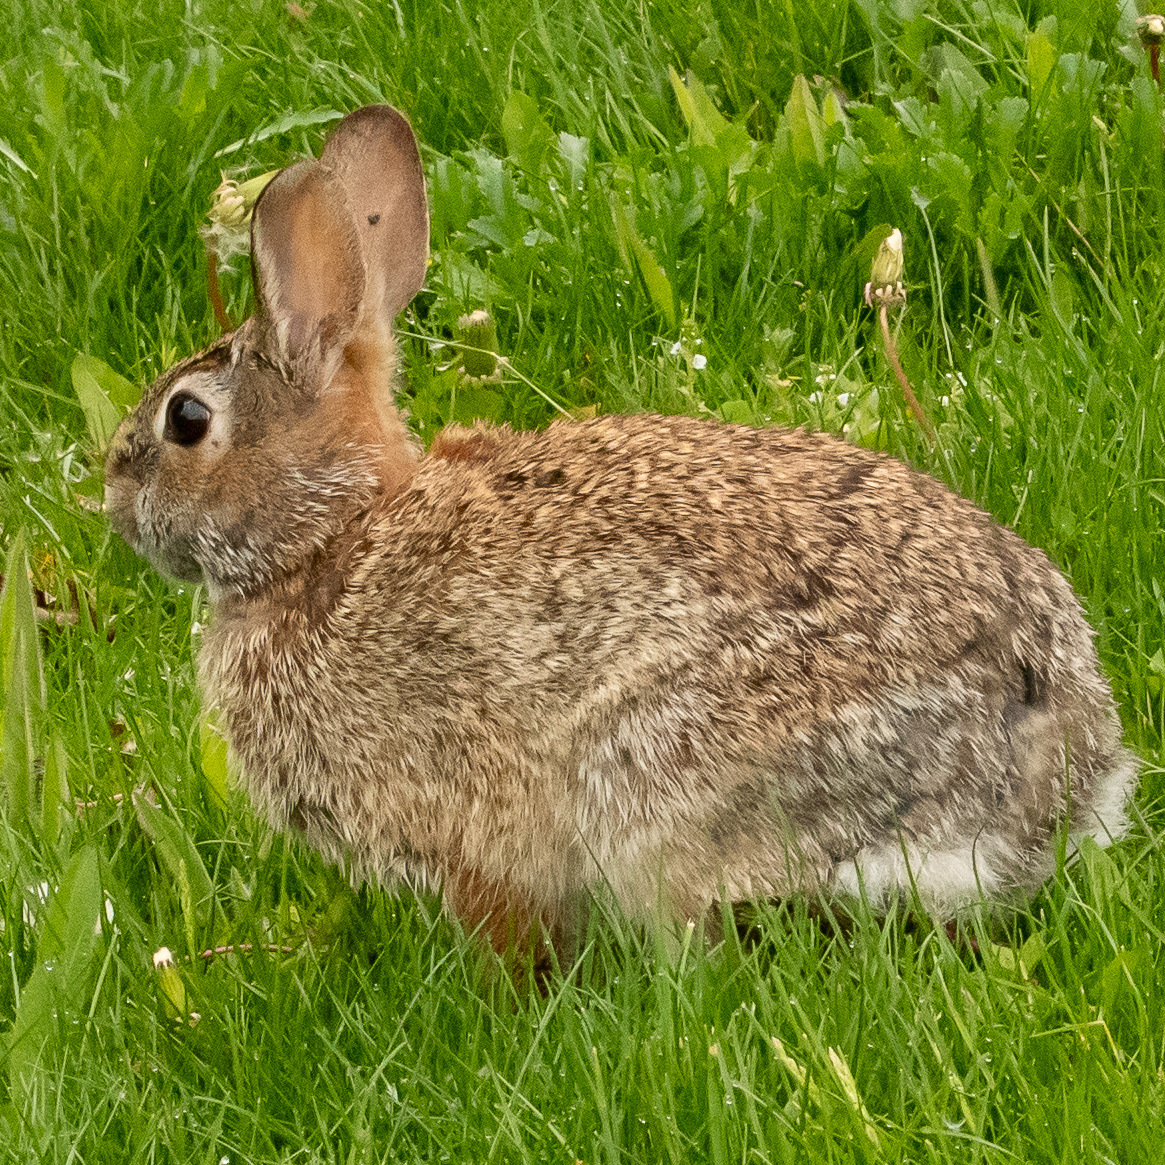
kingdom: Animalia
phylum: Chordata
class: Mammalia
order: Lagomorpha
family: Leporidae
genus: Sylvilagus
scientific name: Sylvilagus floridanus
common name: Eastern cottontail
